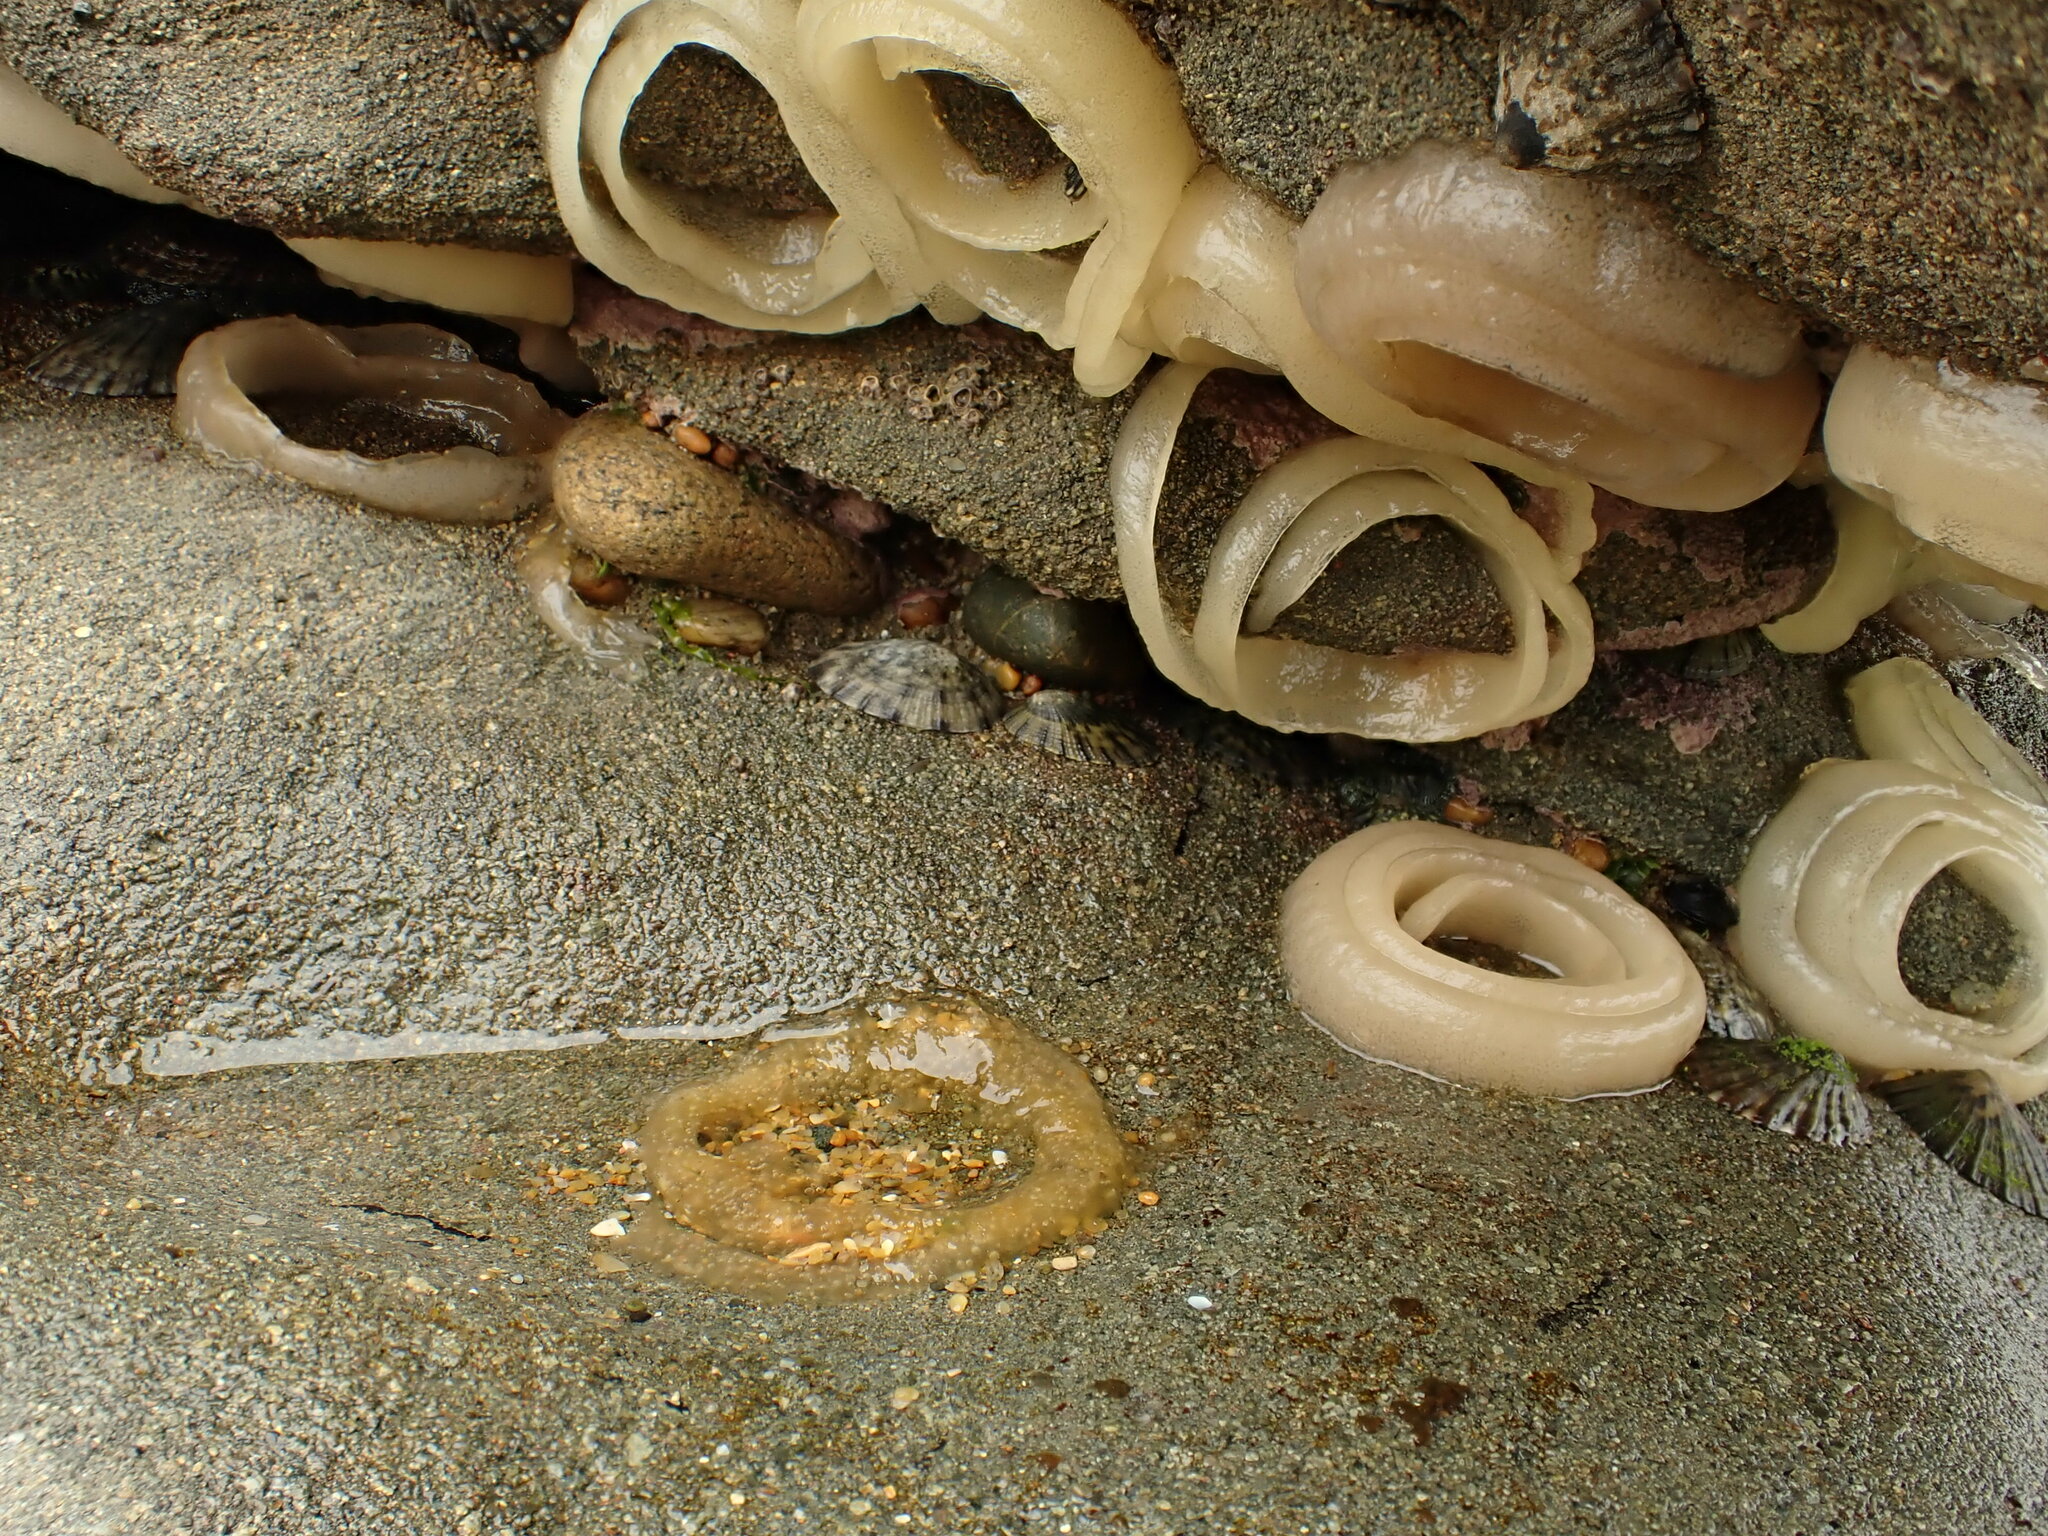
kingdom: Animalia
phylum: Mollusca
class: Gastropoda
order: Siphonariida
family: Siphonariidae
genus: Benhamina
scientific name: Benhamina obliquata
